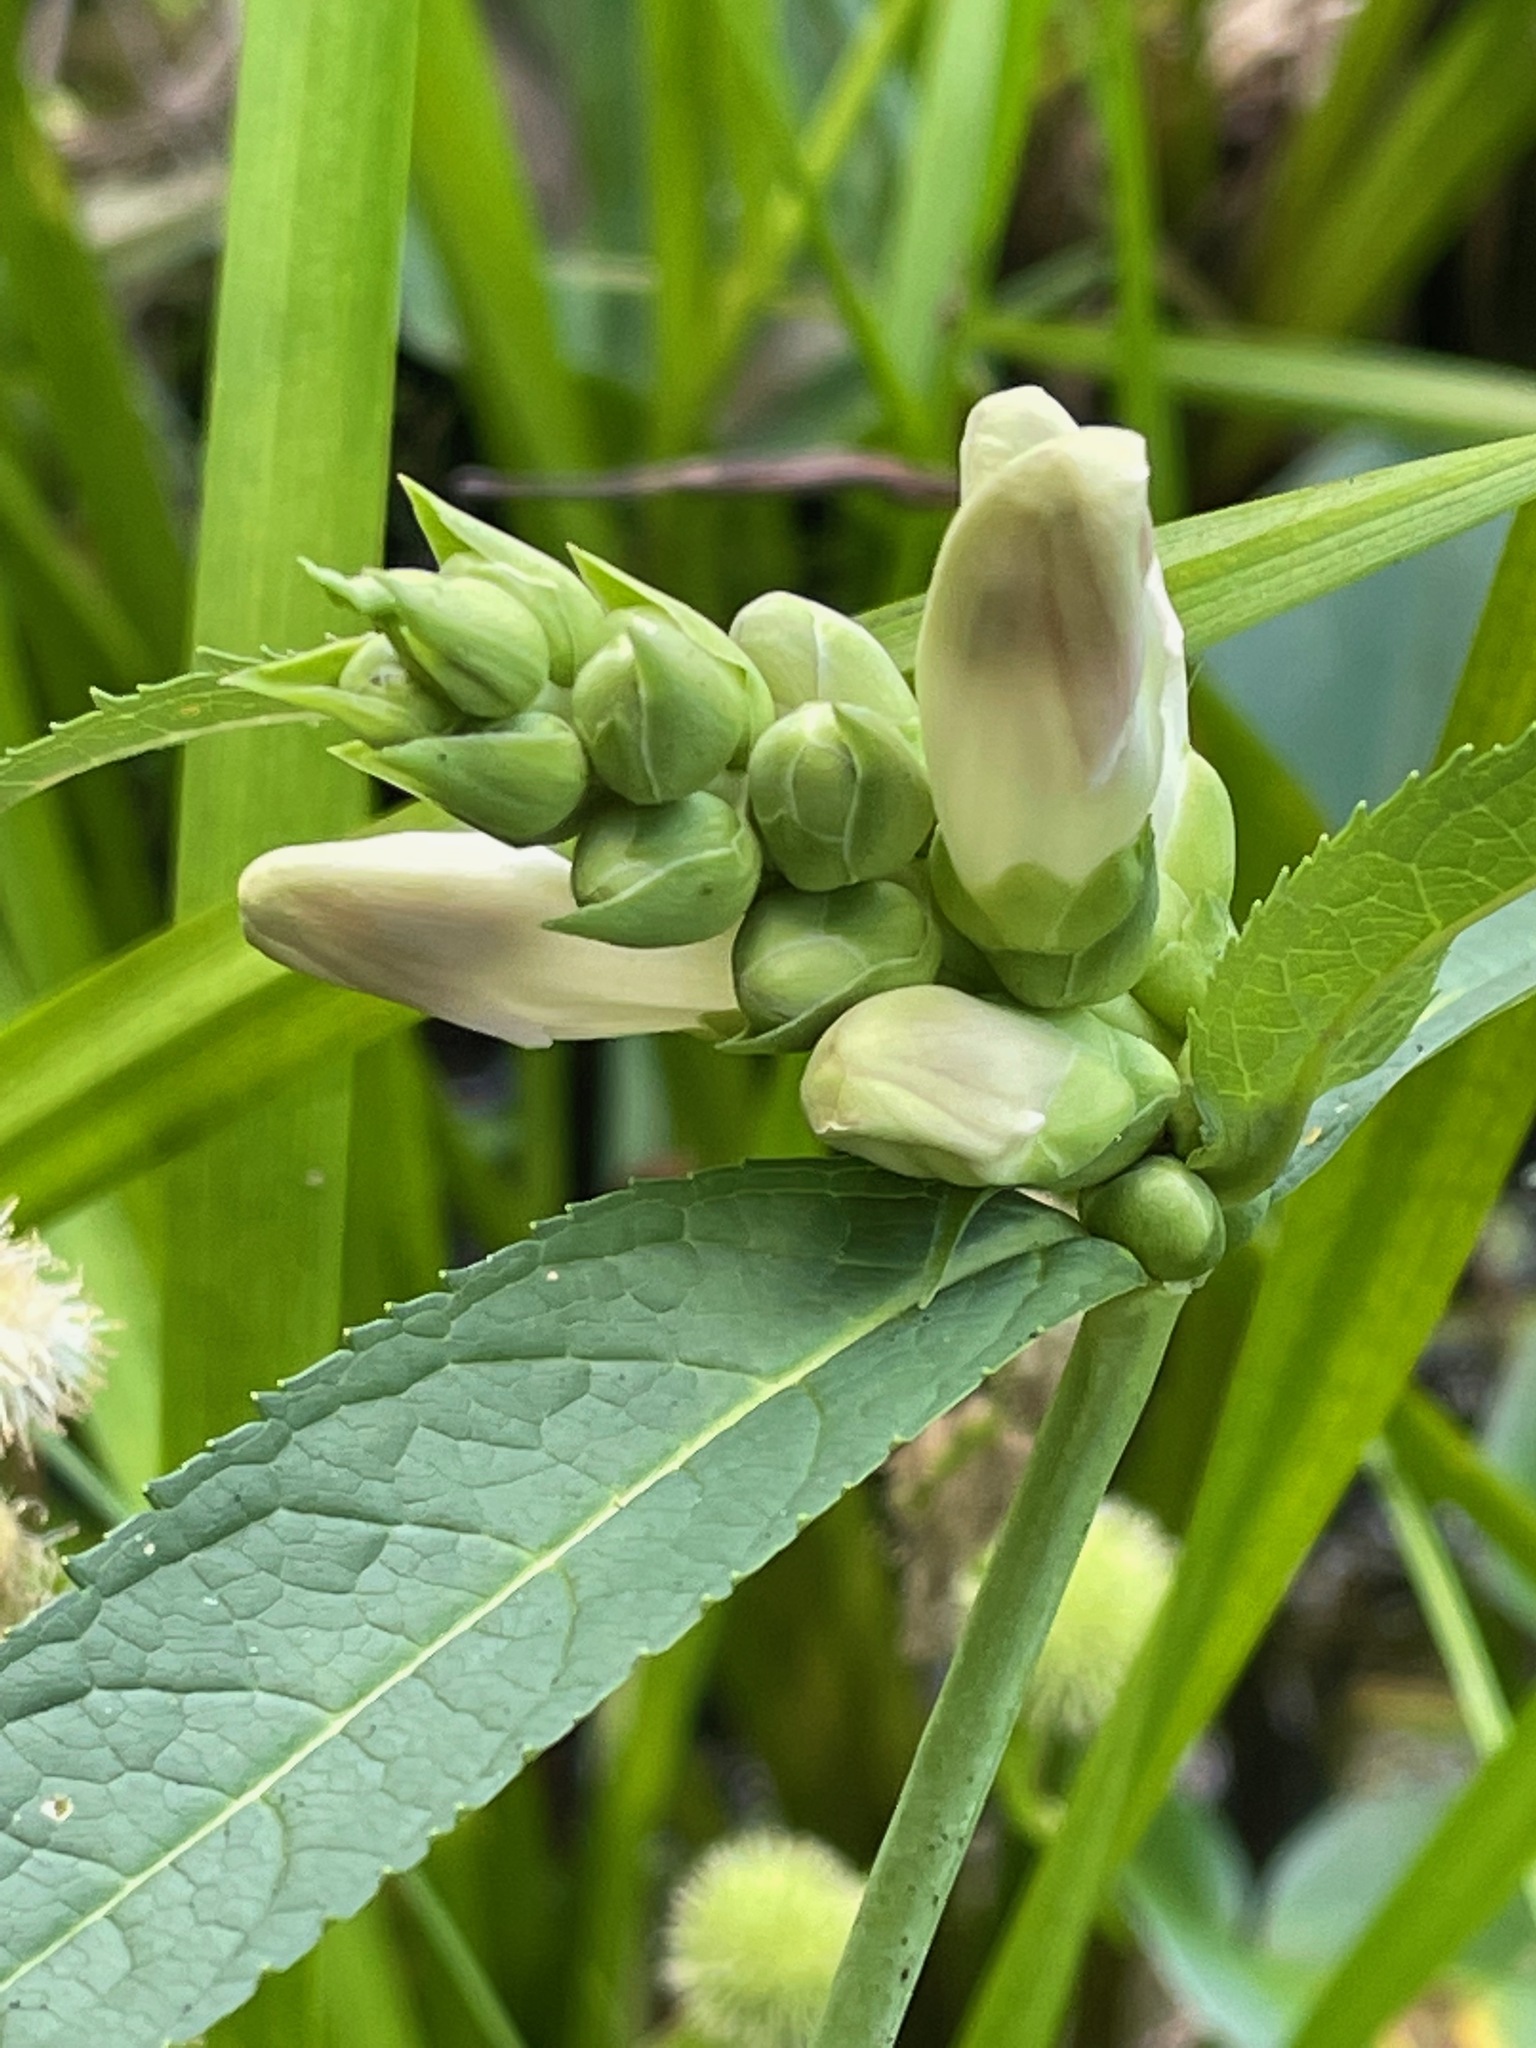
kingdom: Plantae
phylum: Tracheophyta
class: Magnoliopsida
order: Lamiales
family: Plantaginaceae
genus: Chelone
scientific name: Chelone glabra
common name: Snakehead
